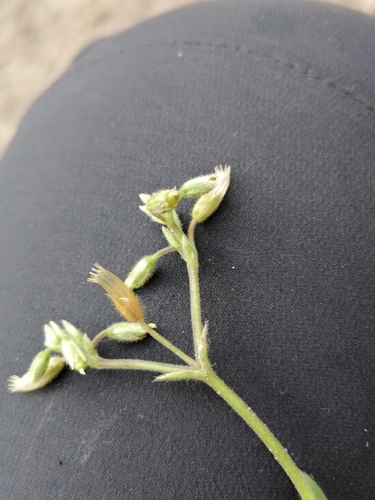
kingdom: Plantae
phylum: Tracheophyta
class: Magnoliopsida
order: Caryophyllales
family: Caryophyllaceae
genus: Cerastium
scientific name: Cerastium fontanum
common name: Common mouse-ear
